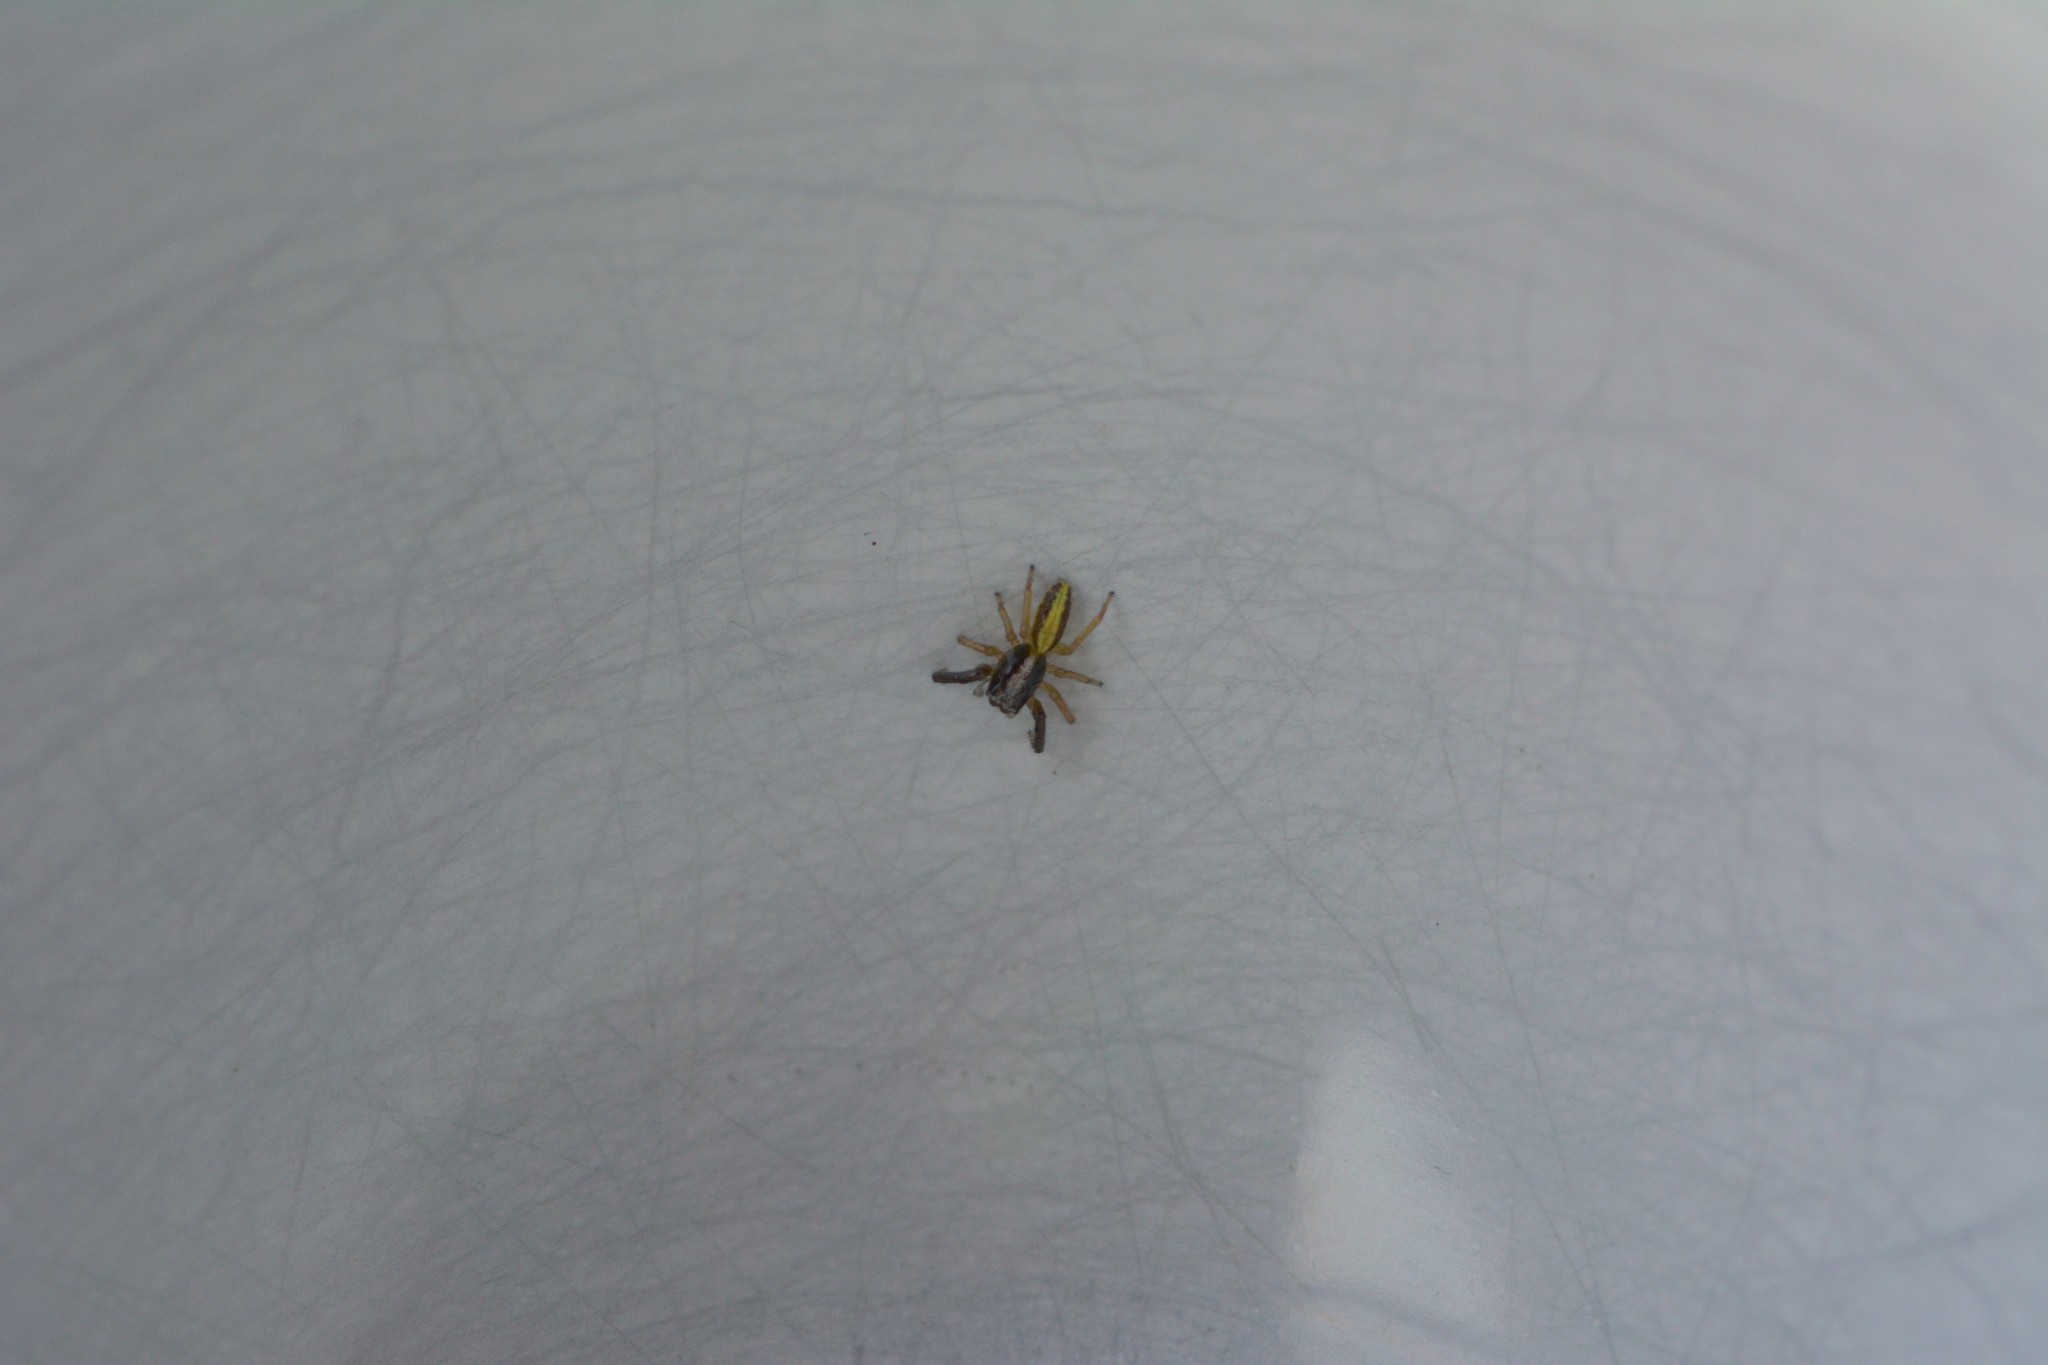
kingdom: Animalia
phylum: Arthropoda
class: Arachnida
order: Araneae
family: Salticidae
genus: Trite
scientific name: Trite planiceps
